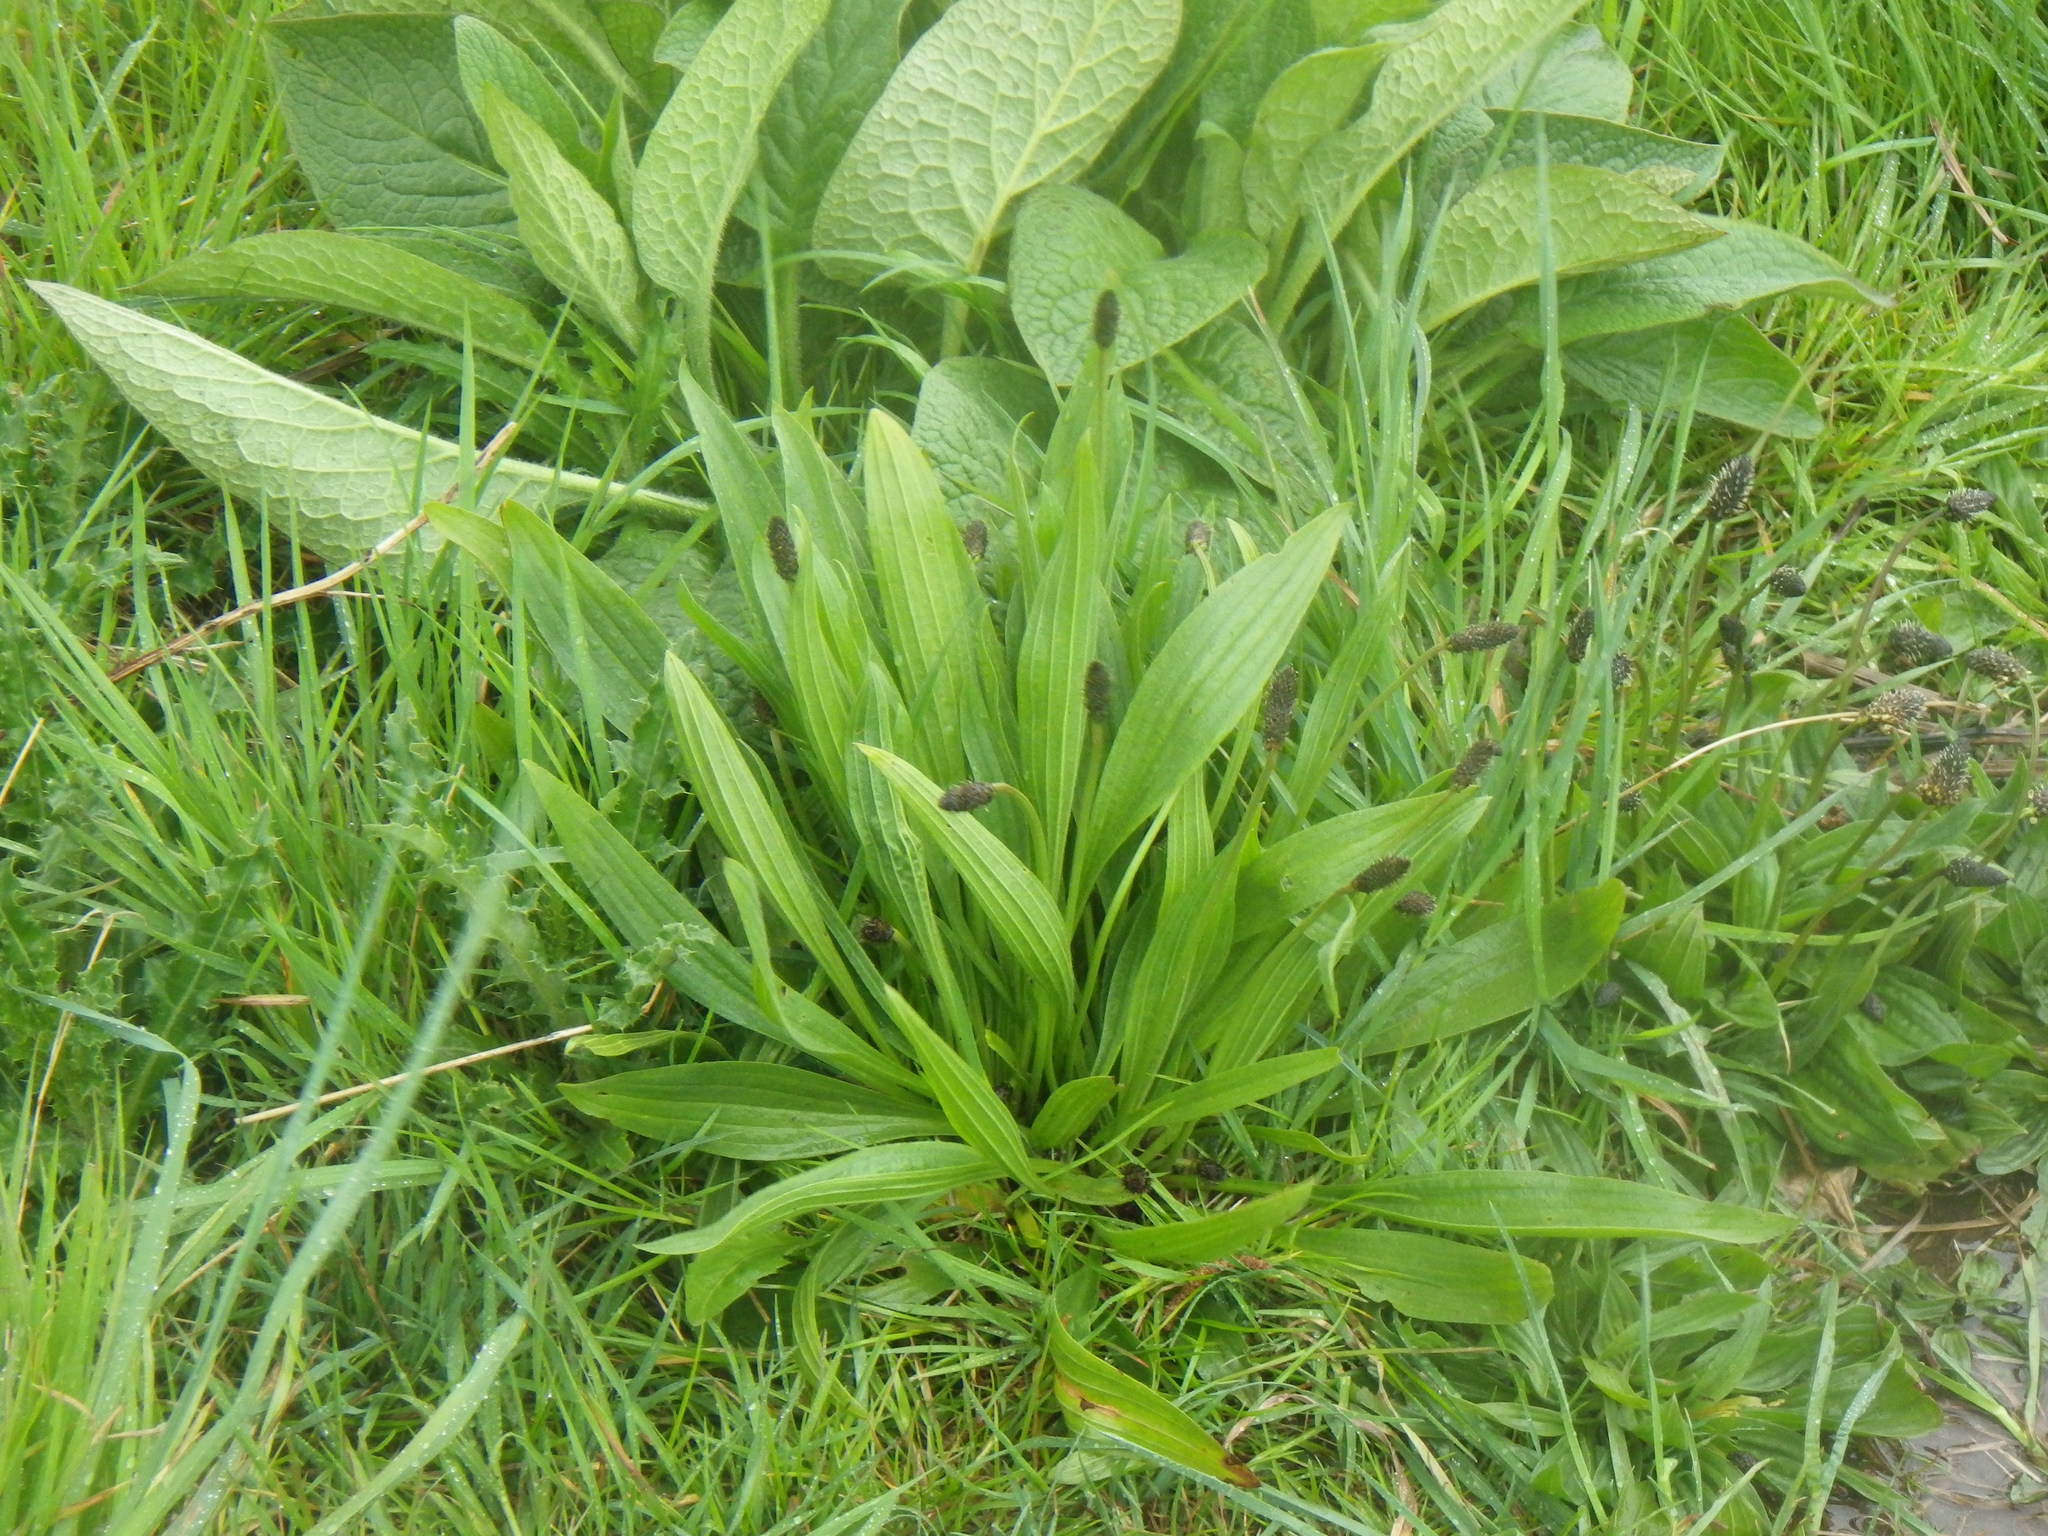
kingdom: Plantae
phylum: Tracheophyta
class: Magnoliopsida
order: Lamiales
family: Plantaginaceae
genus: Plantago
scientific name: Plantago lanceolata
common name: Ribwort plantain
